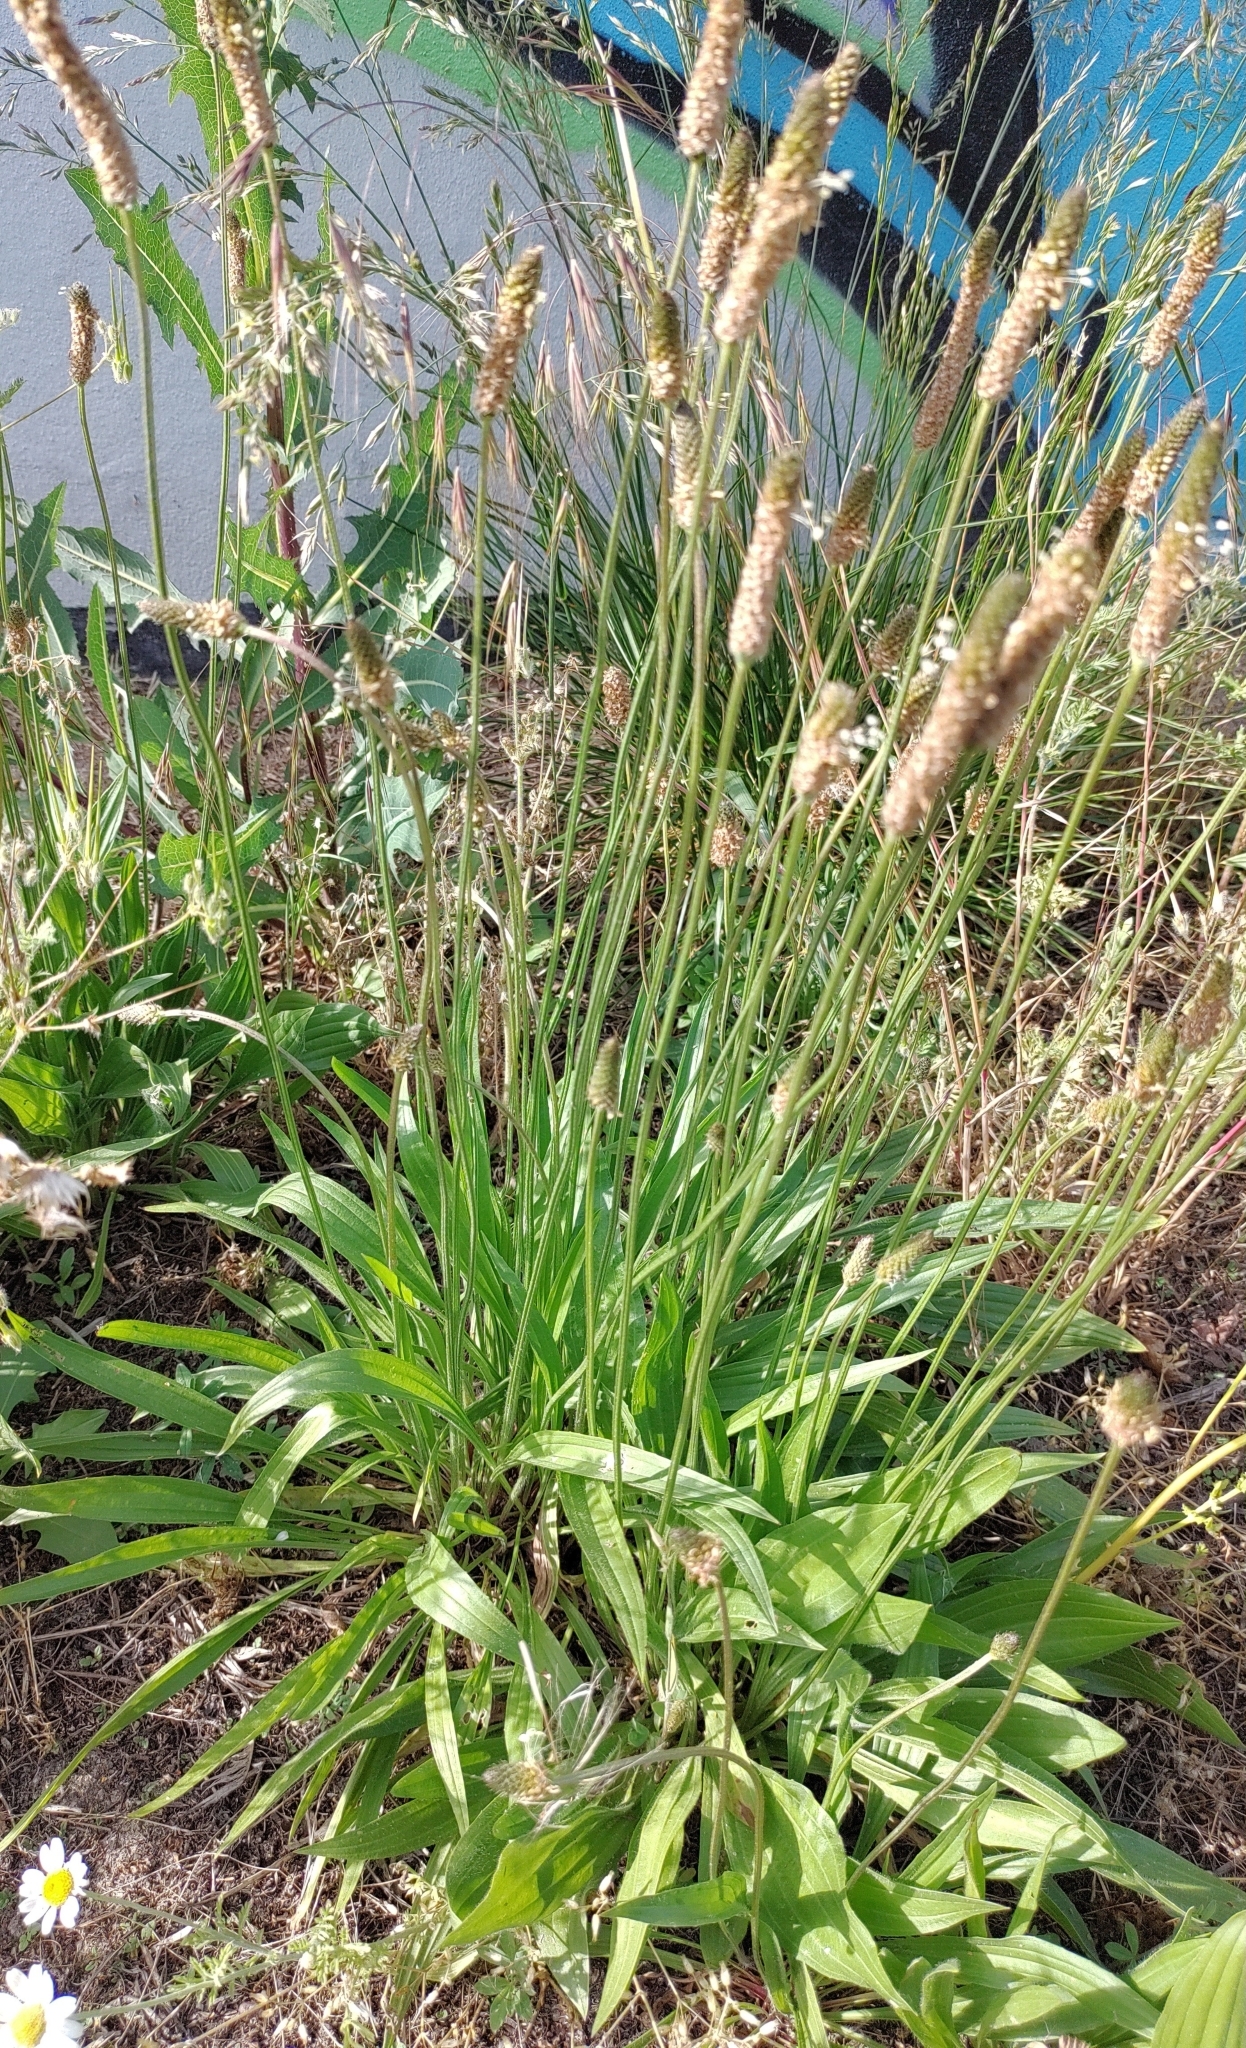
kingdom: Plantae
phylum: Tracheophyta
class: Magnoliopsida
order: Lamiales
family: Plantaginaceae
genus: Plantago
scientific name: Plantago lanceolata
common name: Ribwort plantain
